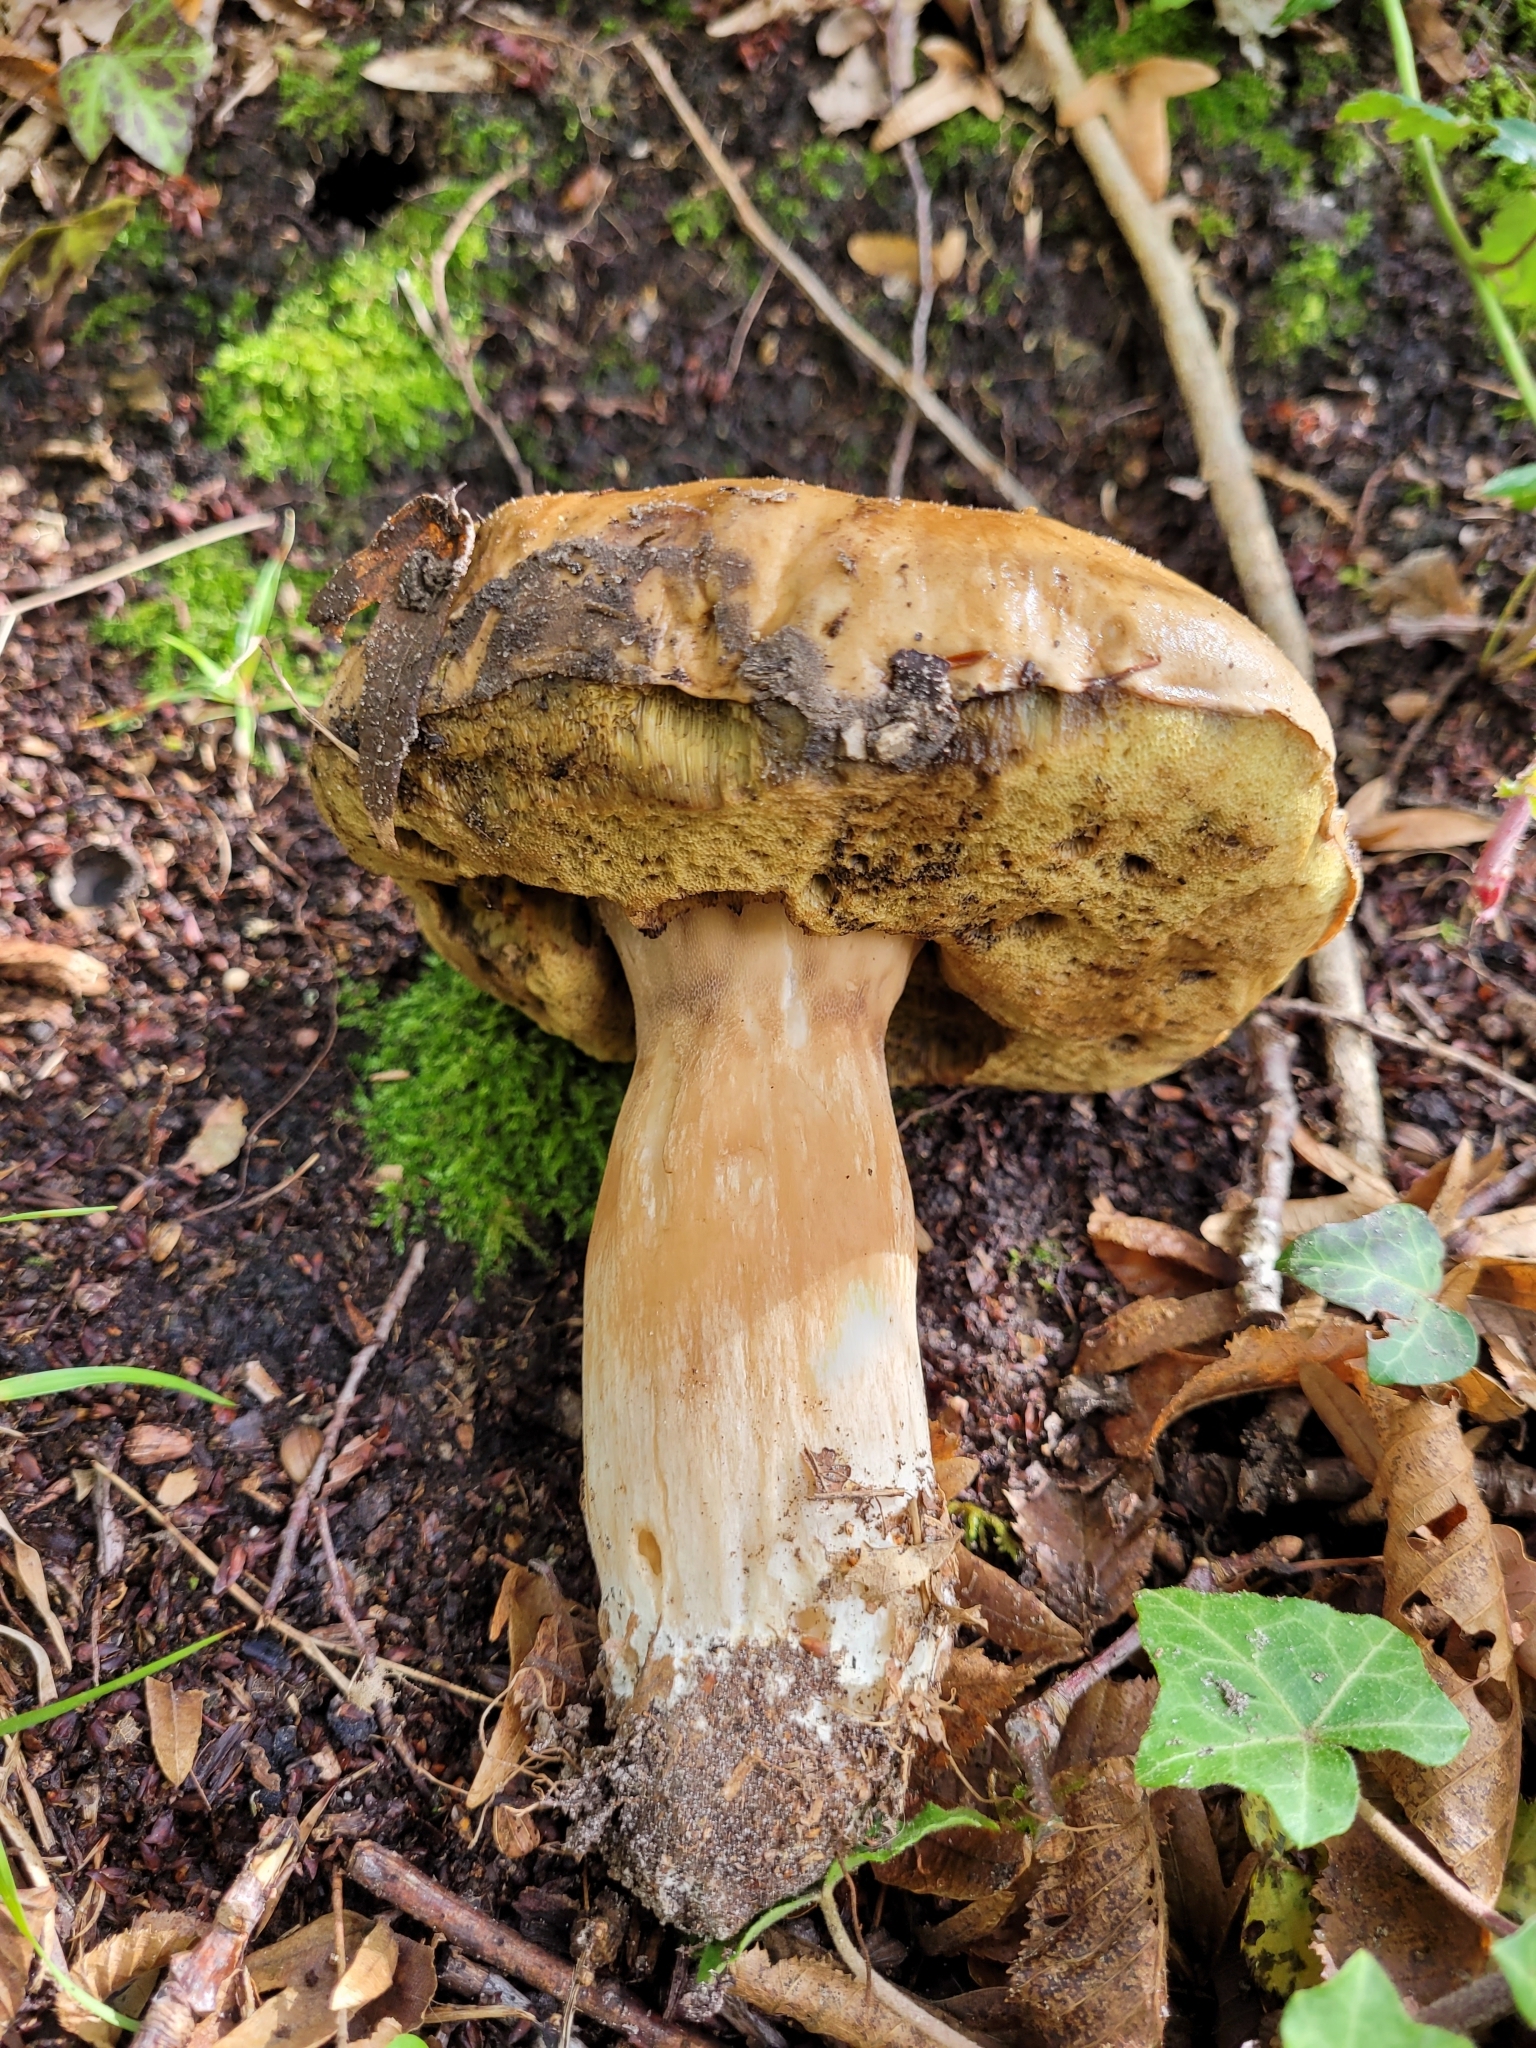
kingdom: Fungi
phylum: Basidiomycota
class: Agaricomycetes
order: Boletales
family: Boletaceae
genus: Boletus
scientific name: Boletus edulis
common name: Cep
